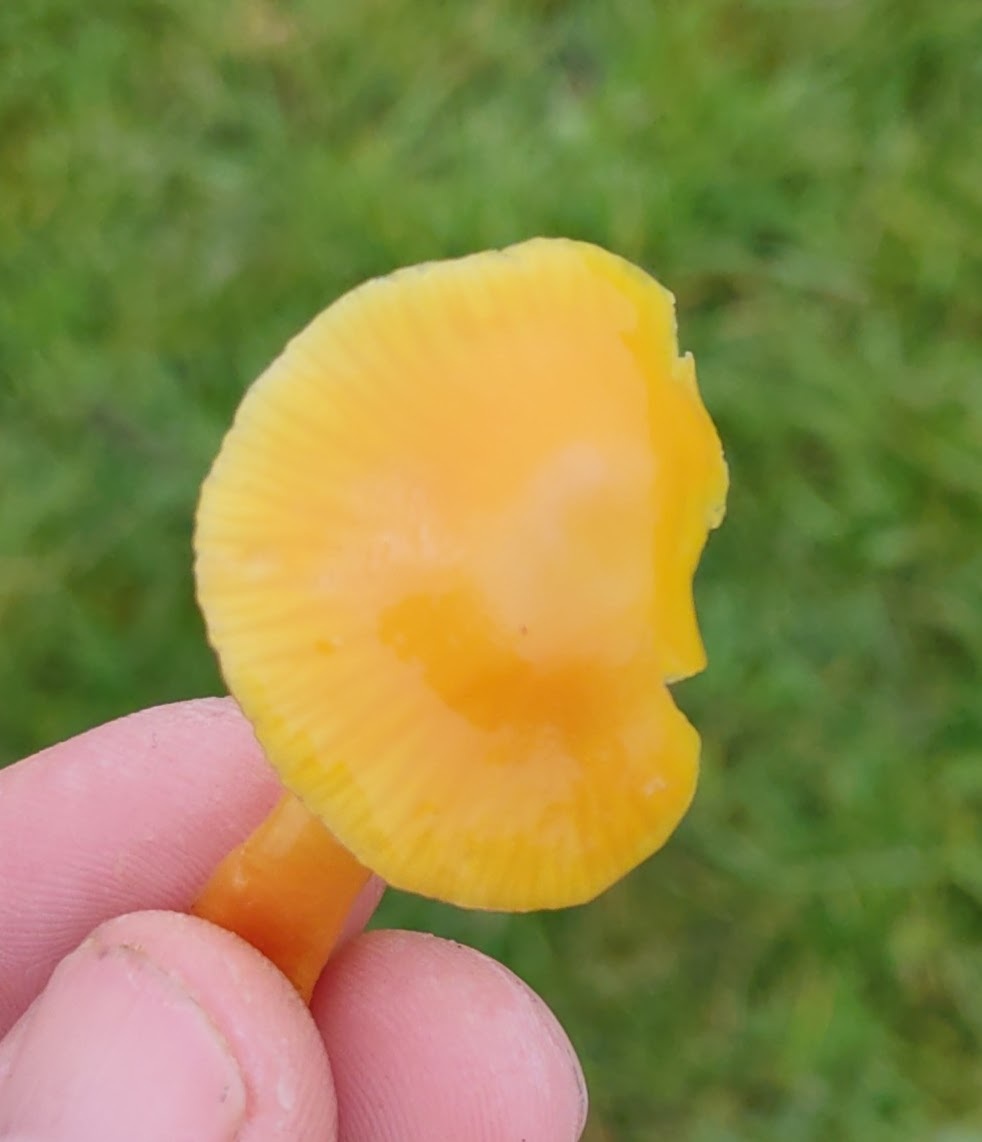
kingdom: Fungi
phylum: Basidiomycota
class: Agaricomycetes
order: Agaricales
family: Hygrophoraceae
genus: Hygrocybe
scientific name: Hygrocybe ceracea
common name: Butter waxcap
